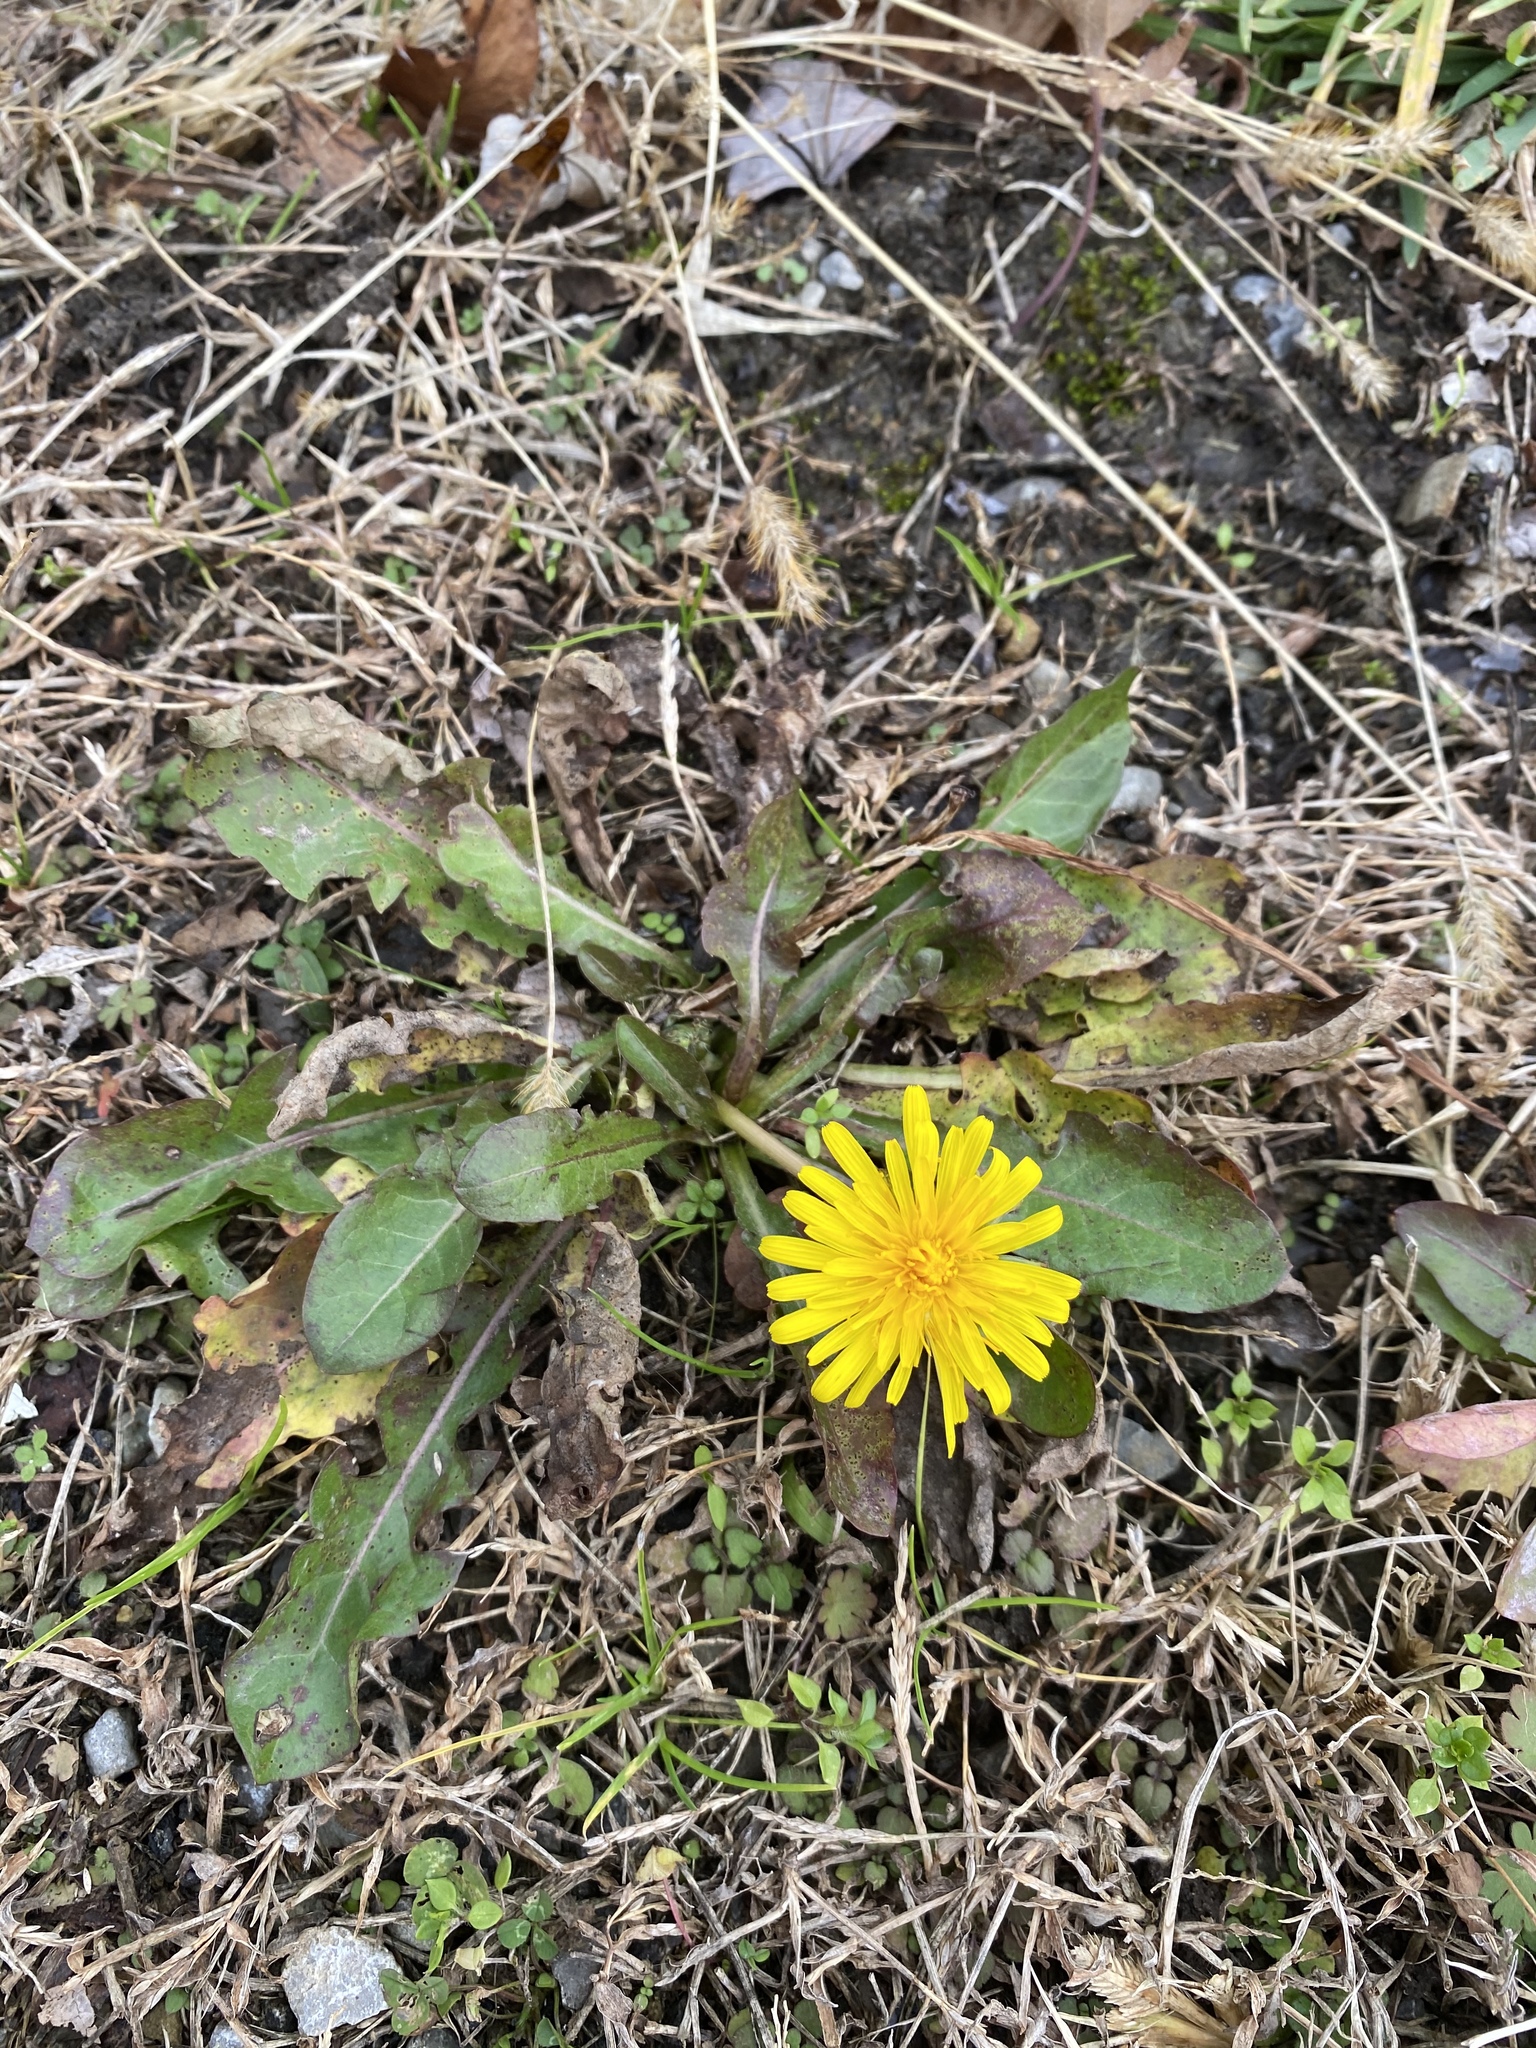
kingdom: Plantae
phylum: Tracheophyta
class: Magnoliopsida
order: Asterales
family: Asteraceae
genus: Taraxacum
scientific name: Taraxacum officinale
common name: Common dandelion
